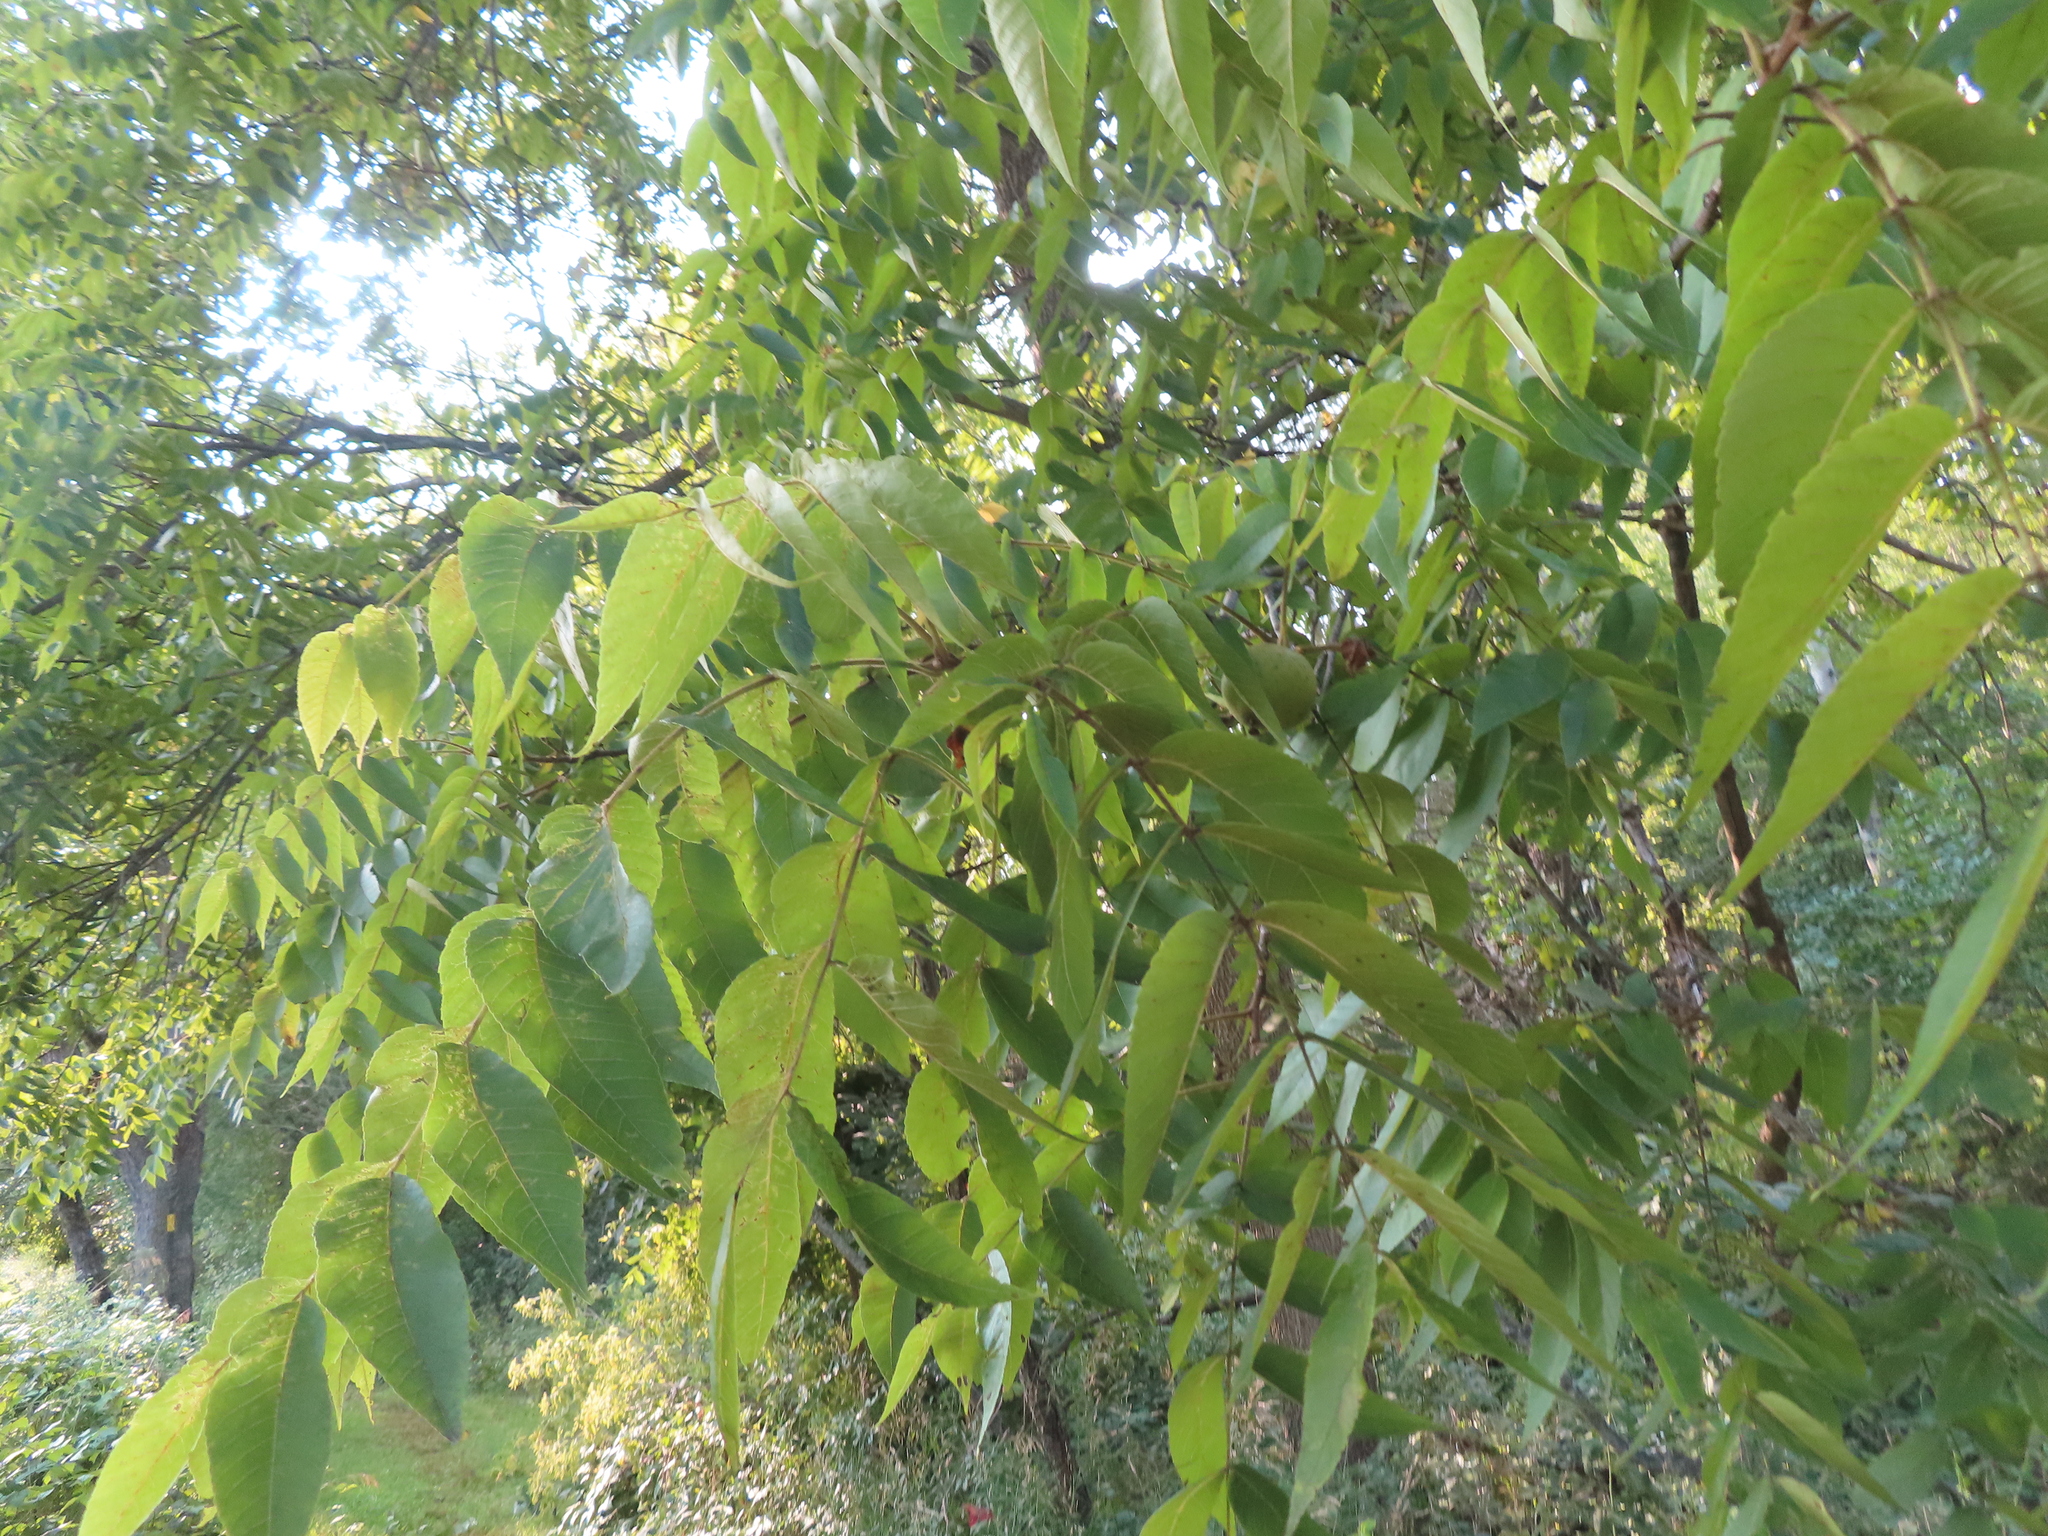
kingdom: Plantae
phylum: Tracheophyta
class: Magnoliopsida
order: Fagales
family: Juglandaceae
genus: Juglans
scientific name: Juglans nigra
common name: Black walnut
